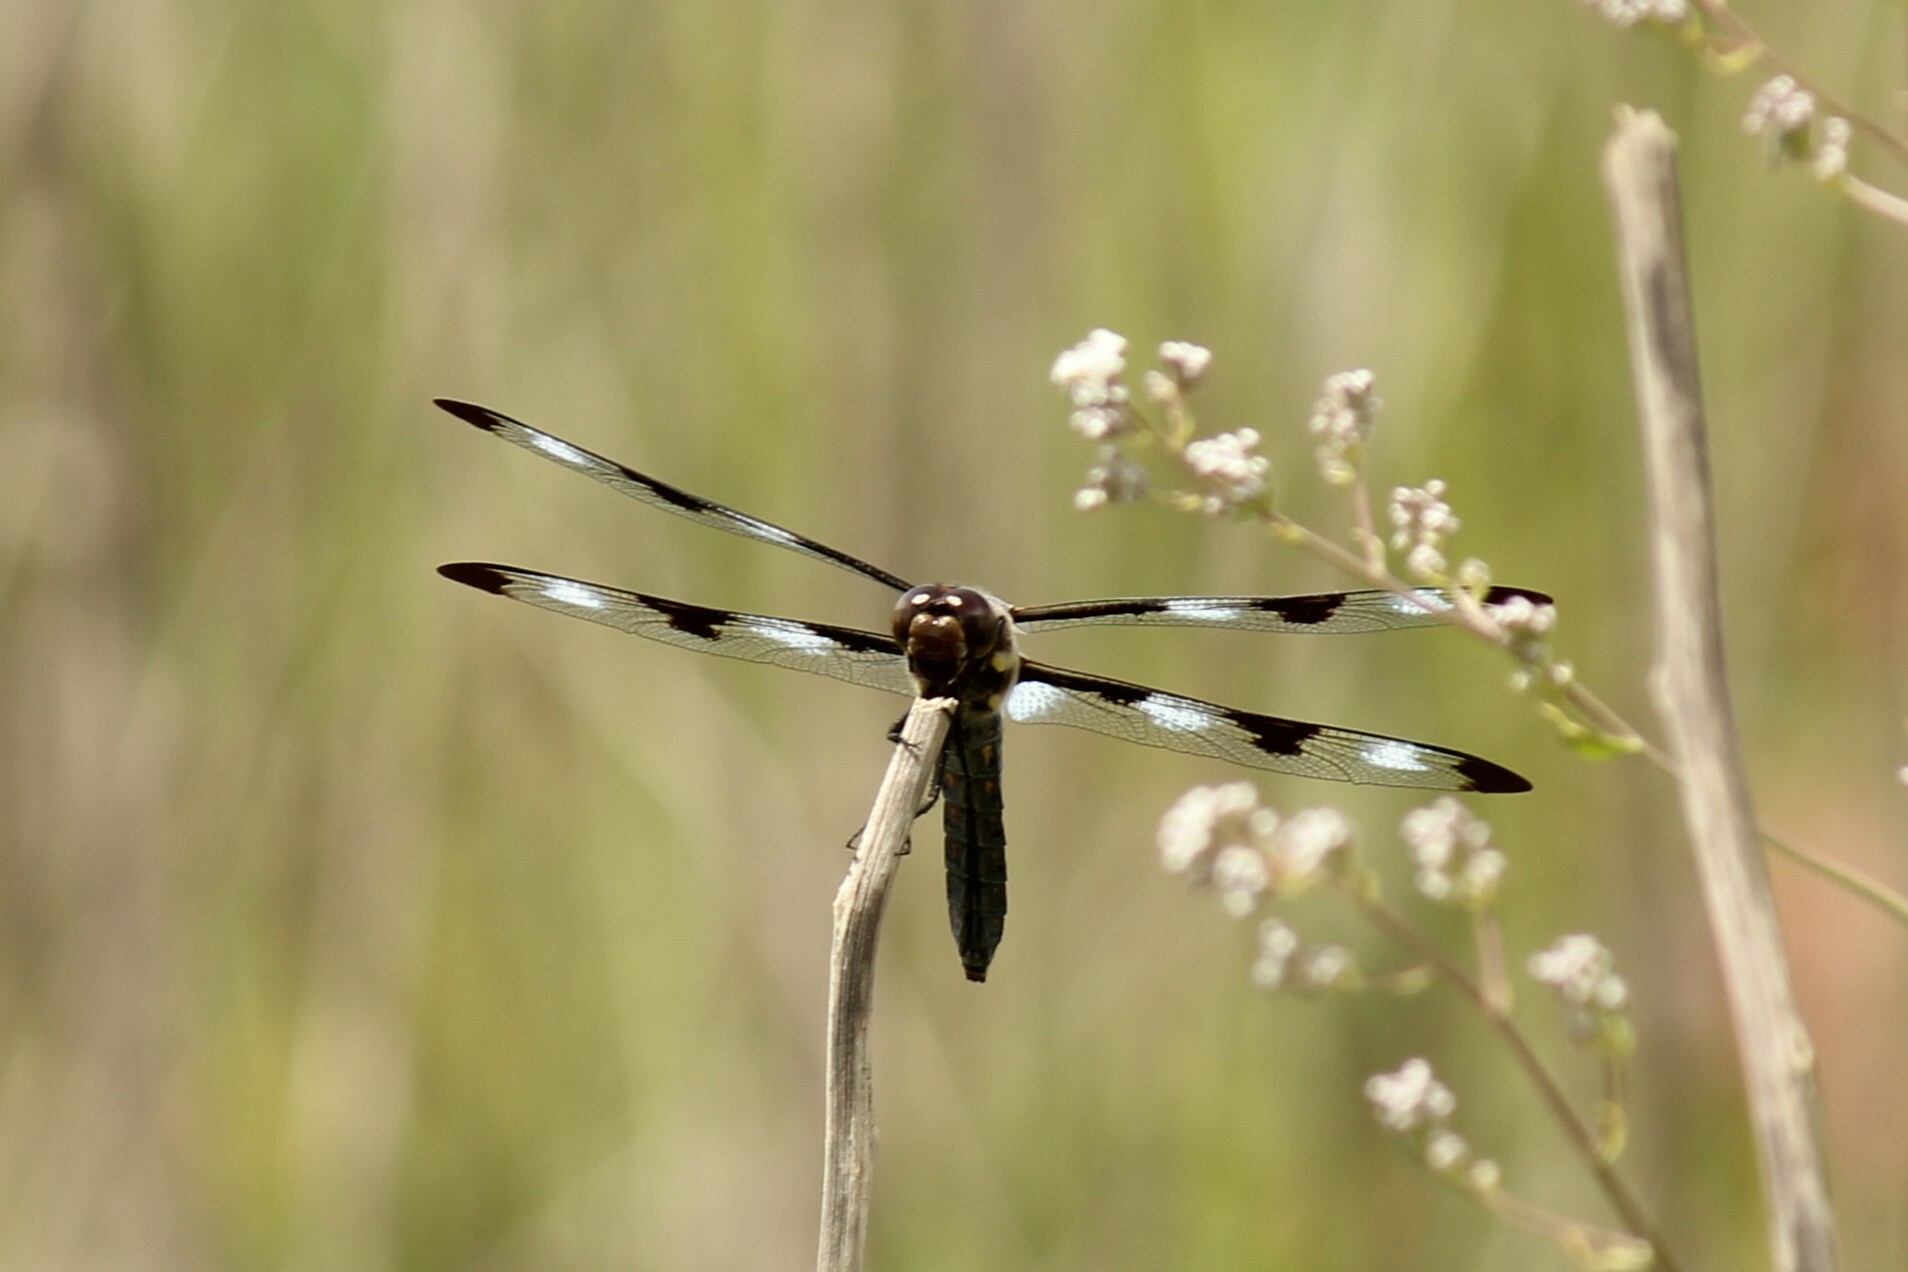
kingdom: Animalia
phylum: Arthropoda
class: Insecta
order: Odonata
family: Libellulidae
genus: Libellula
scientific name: Libellula pulchella
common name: Twelve-spotted skimmer
